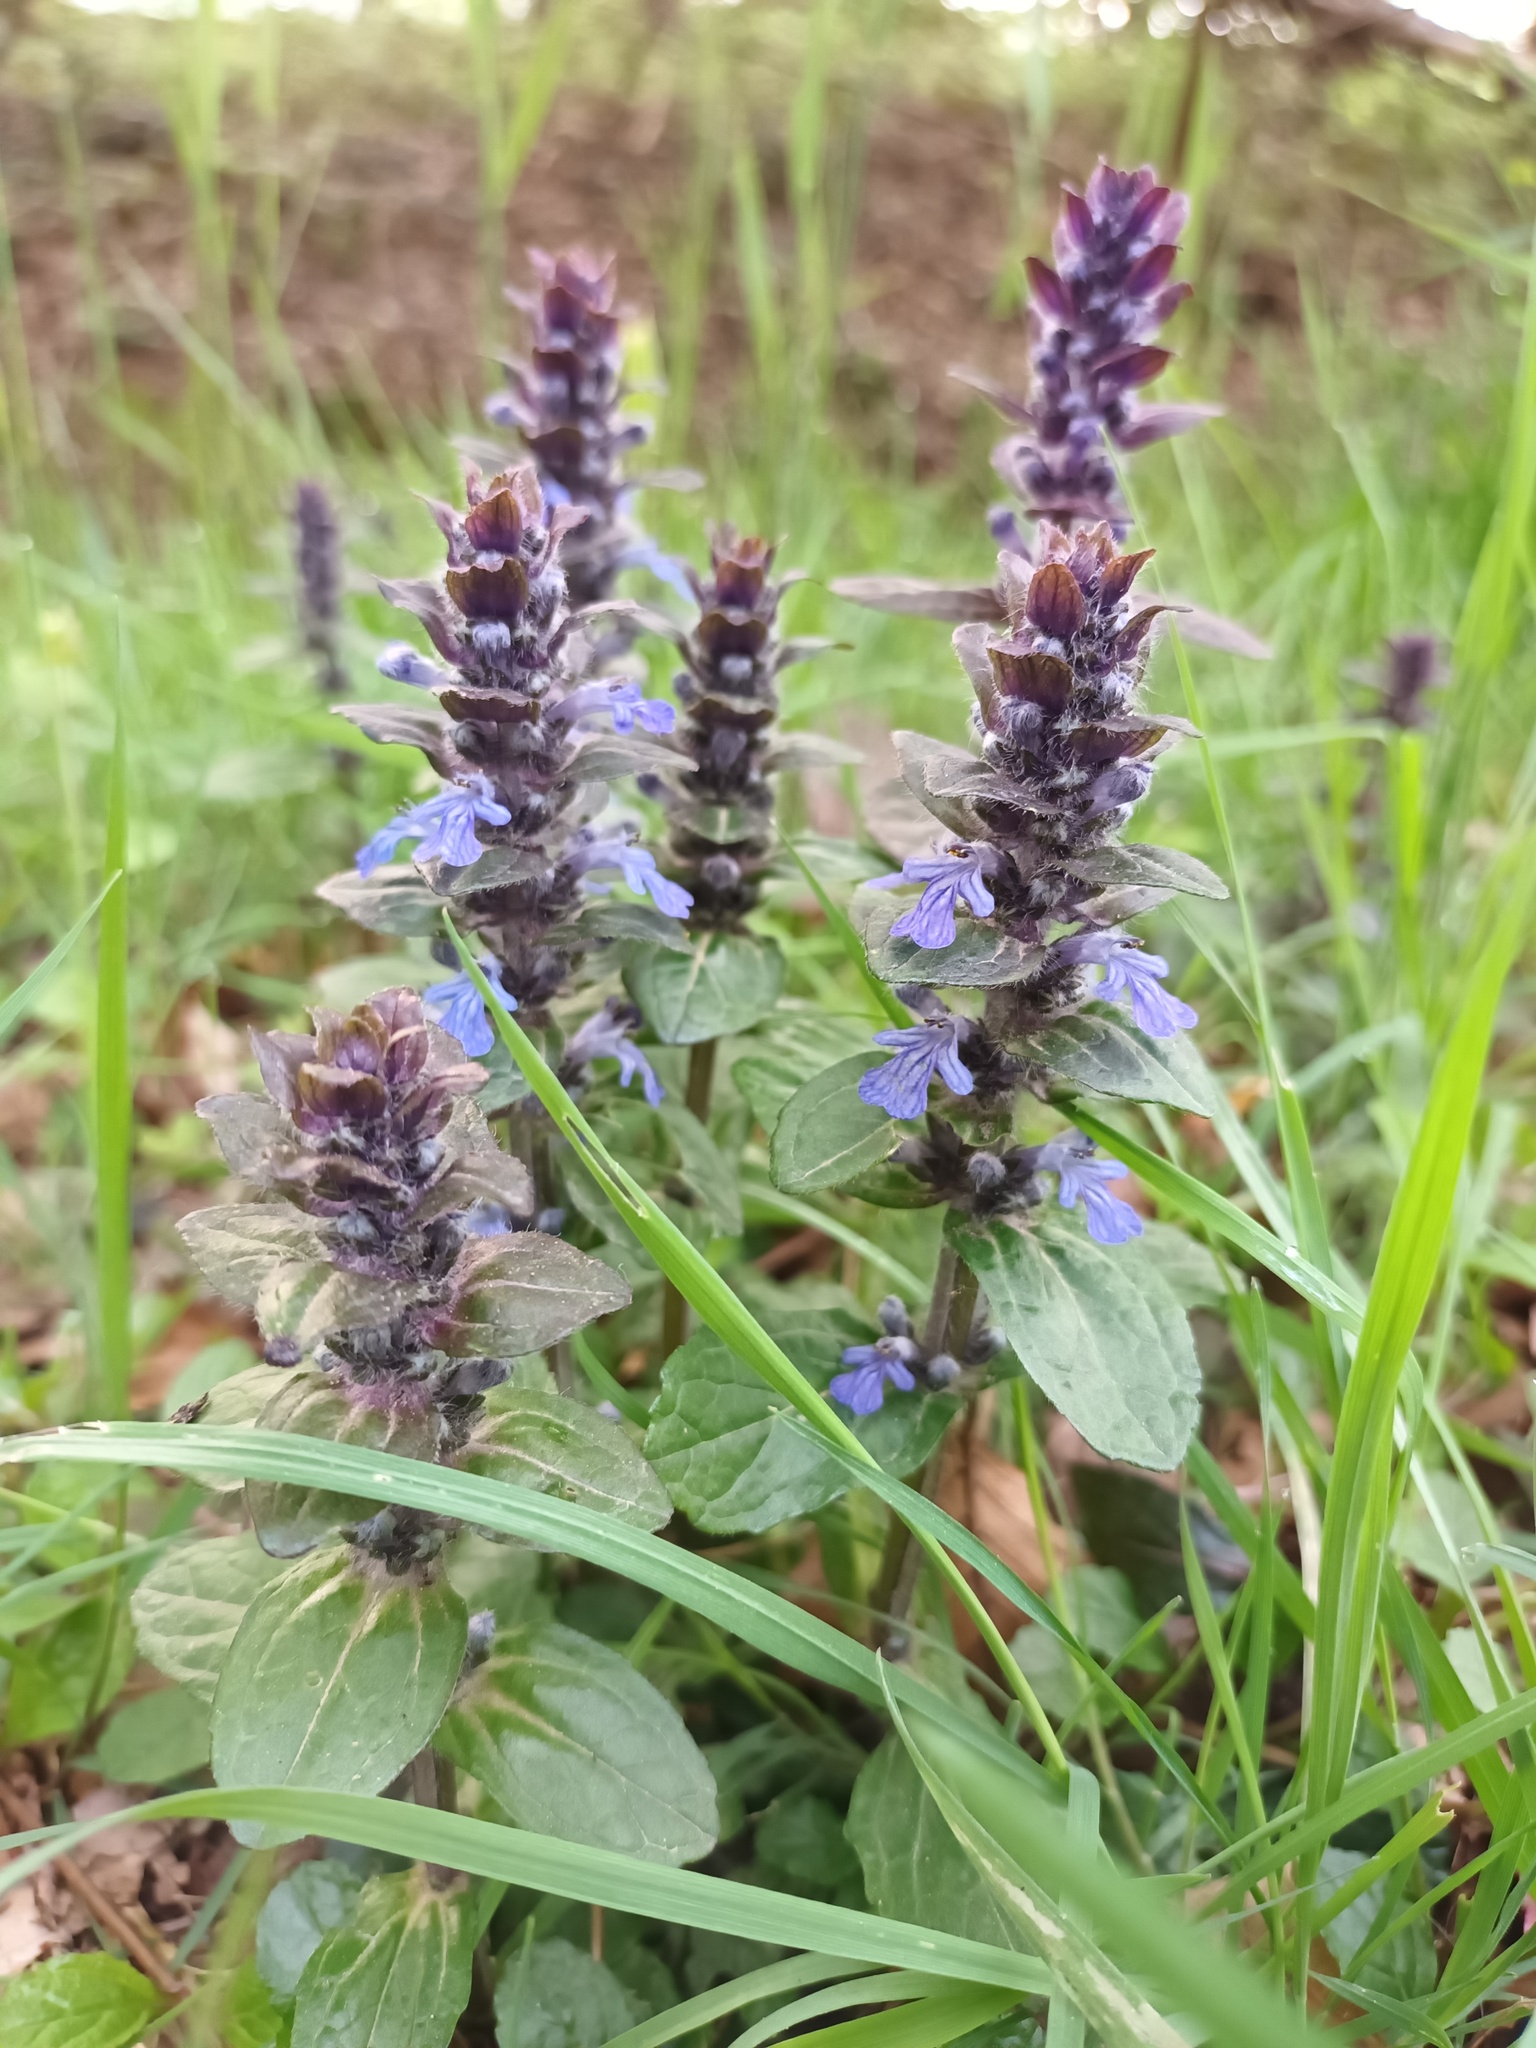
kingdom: Plantae
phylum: Tracheophyta
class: Magnoliopsida
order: Lamiales
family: Lamiaceae
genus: Ajuga
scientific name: Ajuga reptans
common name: Bugle
